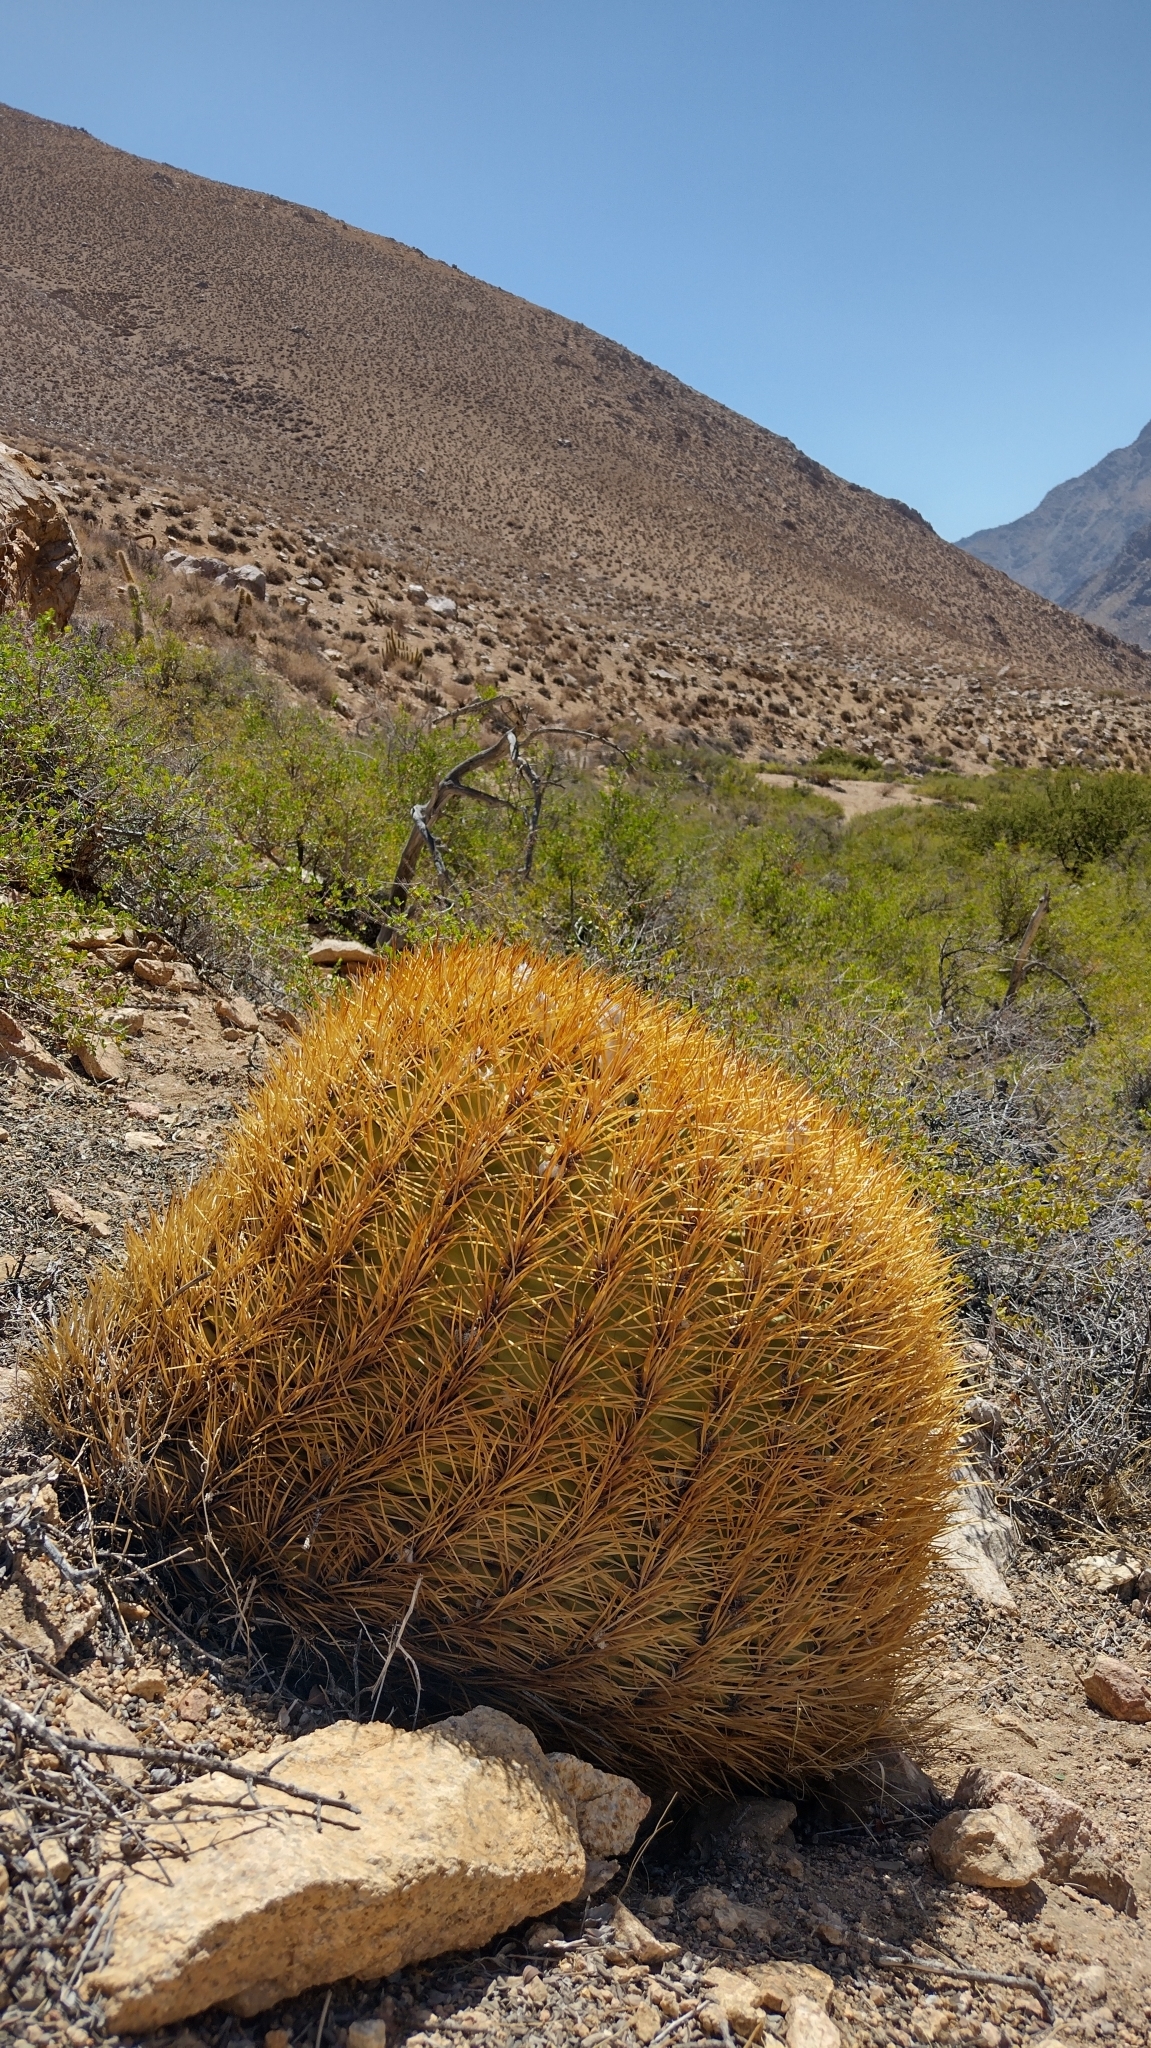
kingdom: Plantae
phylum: Tracheophyta
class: Magnoliopsida
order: Caryophyllales
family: Cactaceae
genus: Eriosyce
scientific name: Eriosyce aurata
